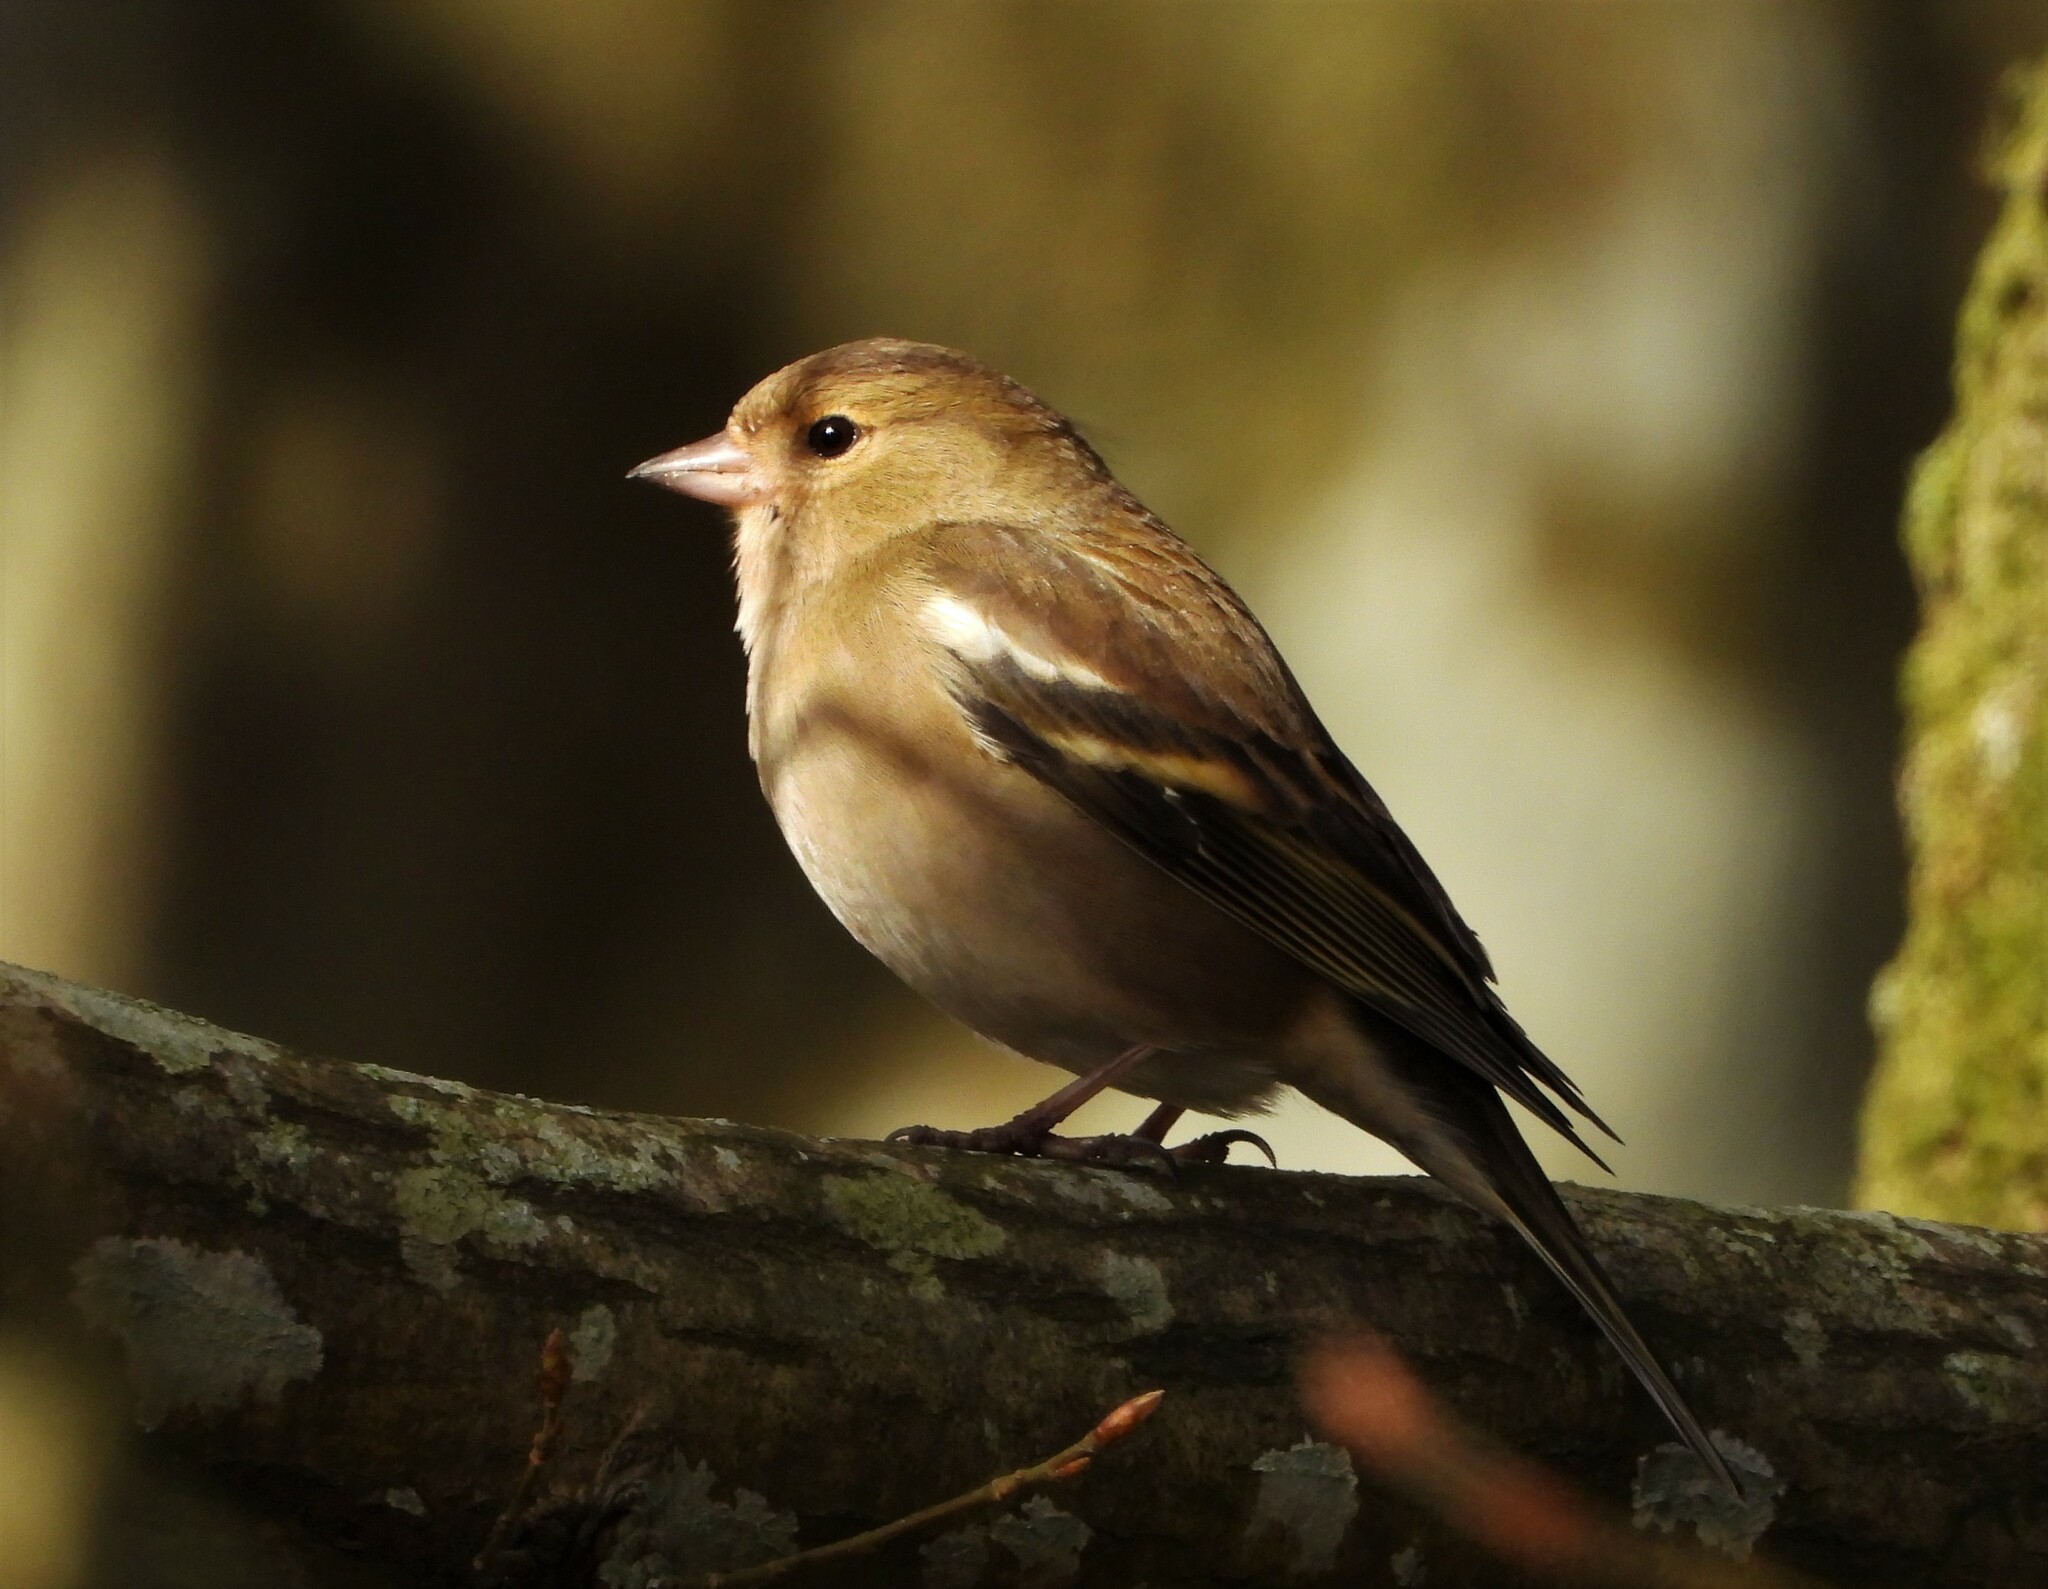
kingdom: Animalia
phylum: Chordata
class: Aves
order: Passeriformes
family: Fringillidae
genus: Fringilla
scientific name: Fringilla coelebs
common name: Common chaffinch
